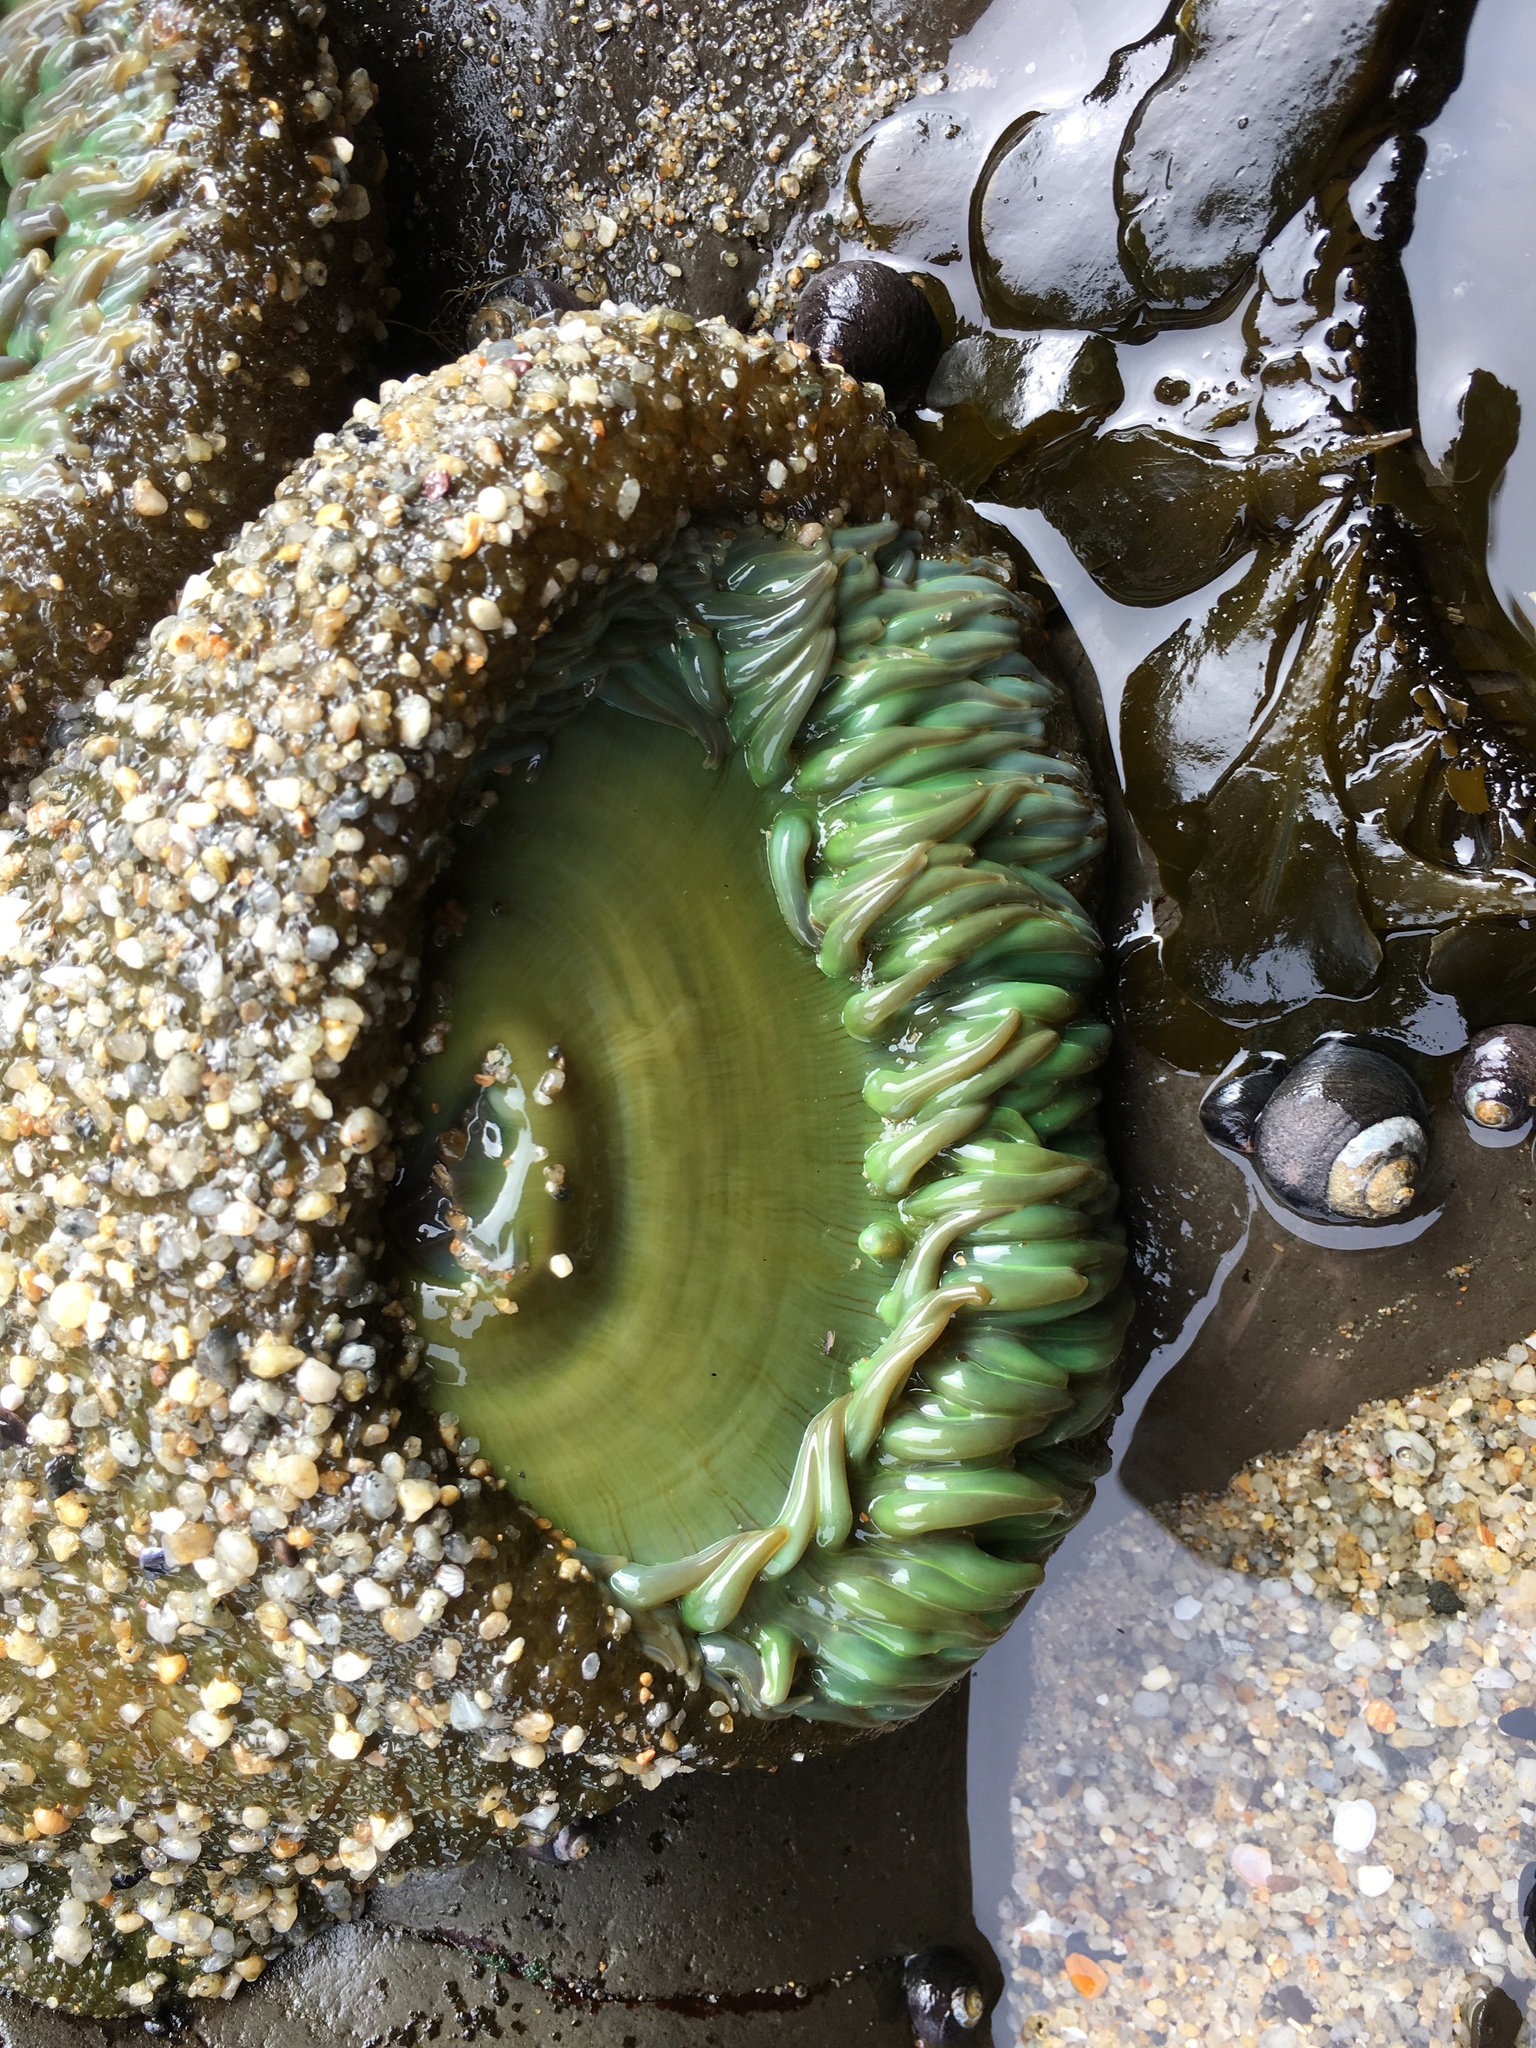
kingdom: Animalia
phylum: Cnidaria
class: Anthozoa
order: Actiniaria
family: Actiniidae
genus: Anthopleura
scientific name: Anthopleura xanthogrammica
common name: Giant green anemone
